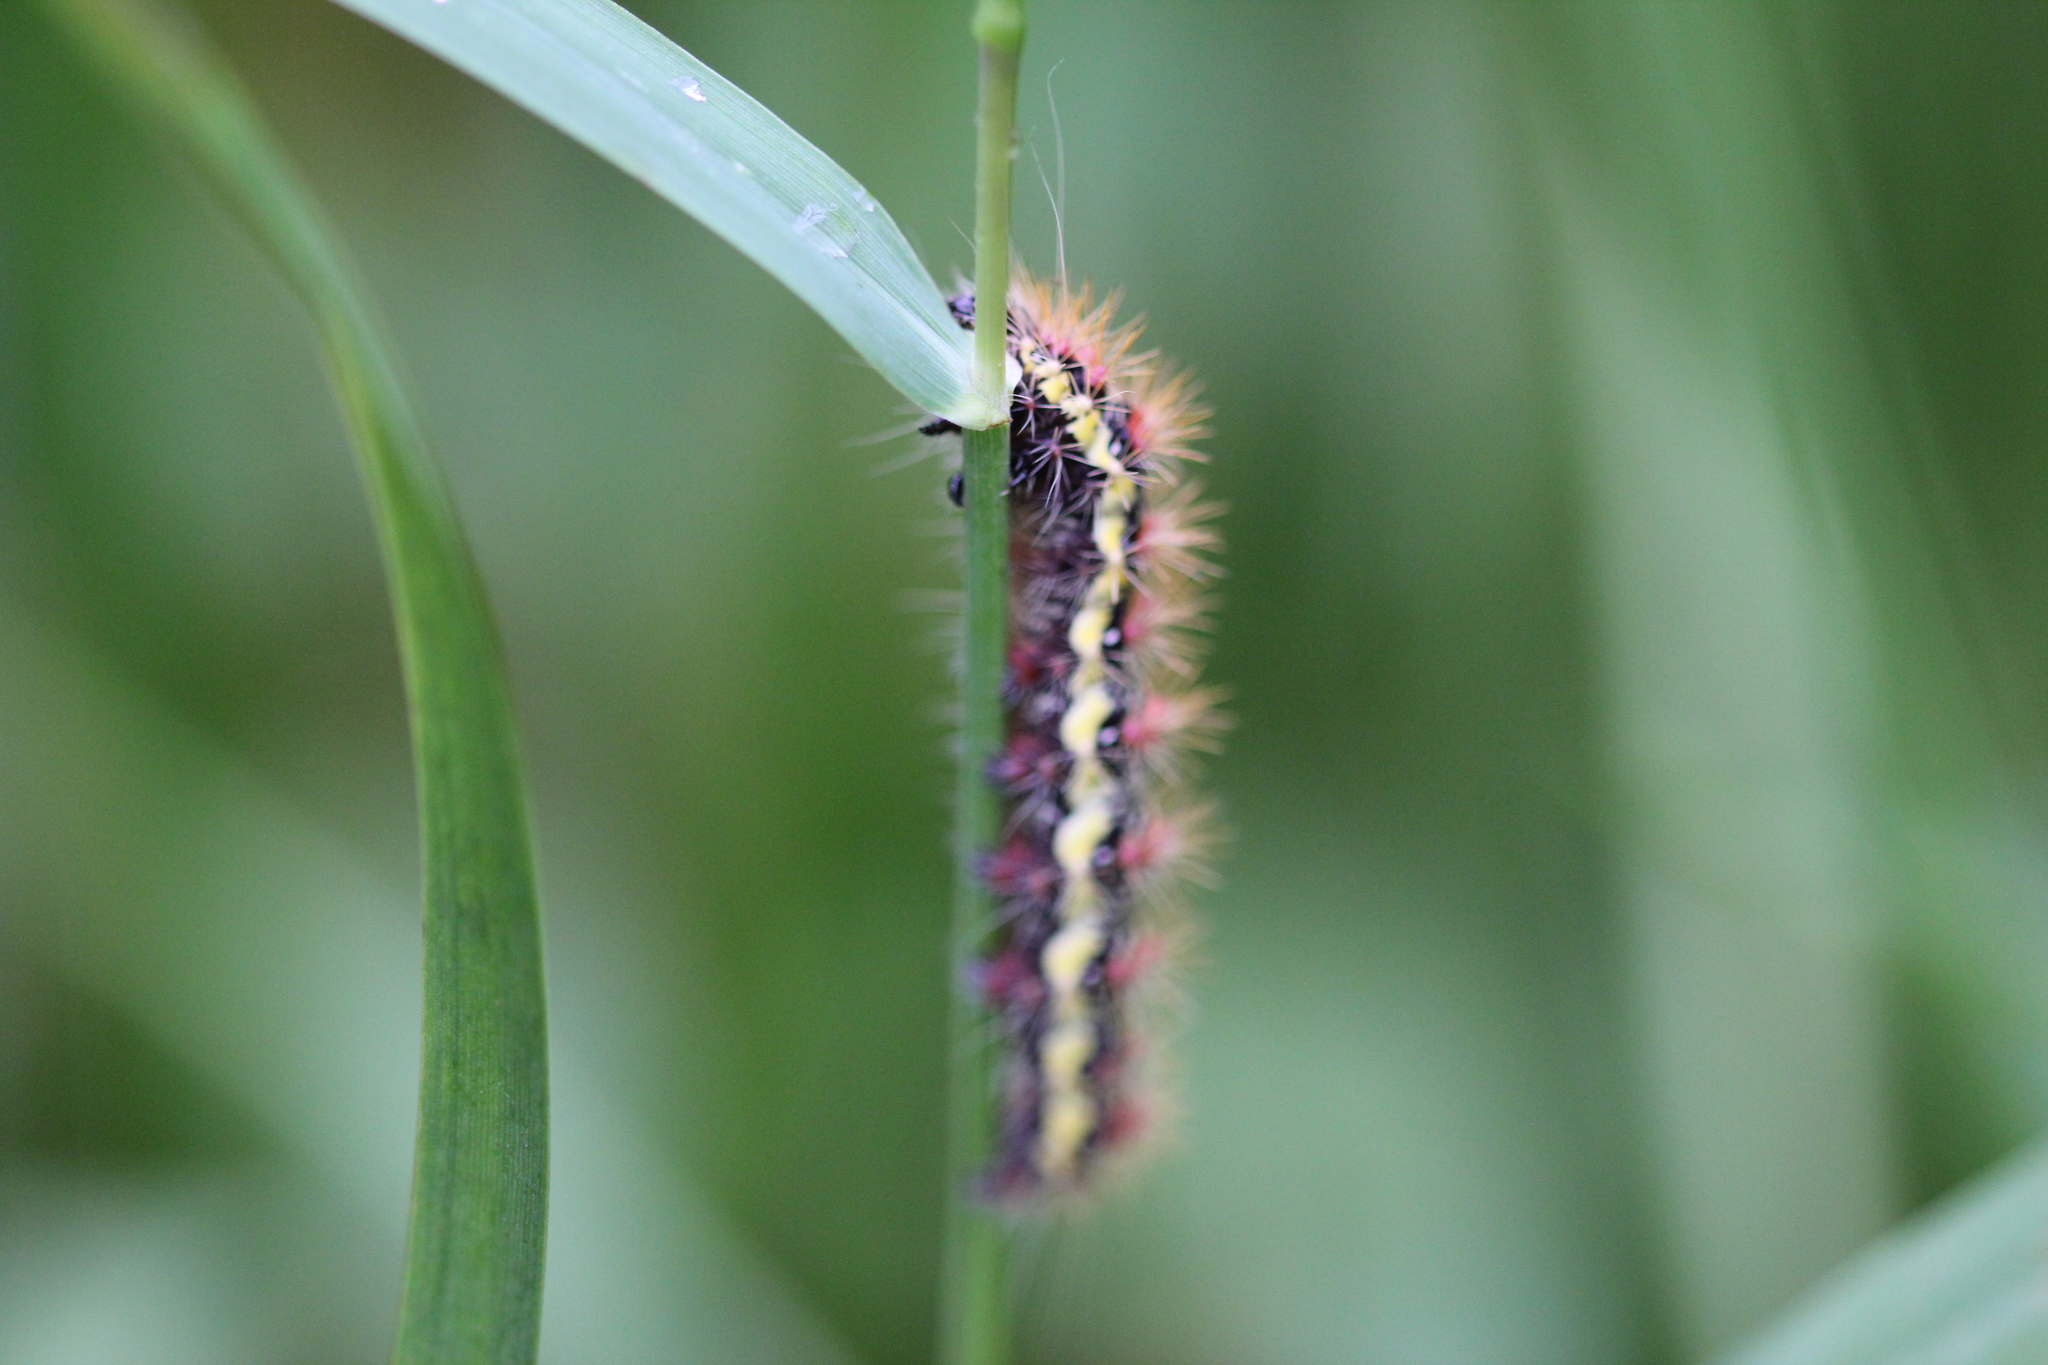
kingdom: Animalia
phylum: Arthropoda
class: Insecta
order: Lepidoptera
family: Noctuidae
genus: Acronicta
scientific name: Acronicta oblinita
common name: Smeared dagger
